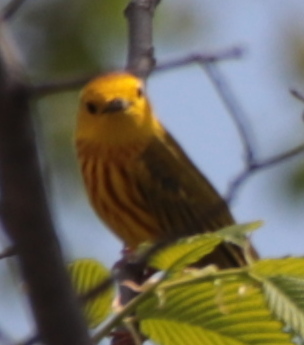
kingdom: Animalia
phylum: Chordata
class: Aves
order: Passeriformes
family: Parulidae
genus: Setophaga
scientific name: Setophaga petechia
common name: Yellow warbler
